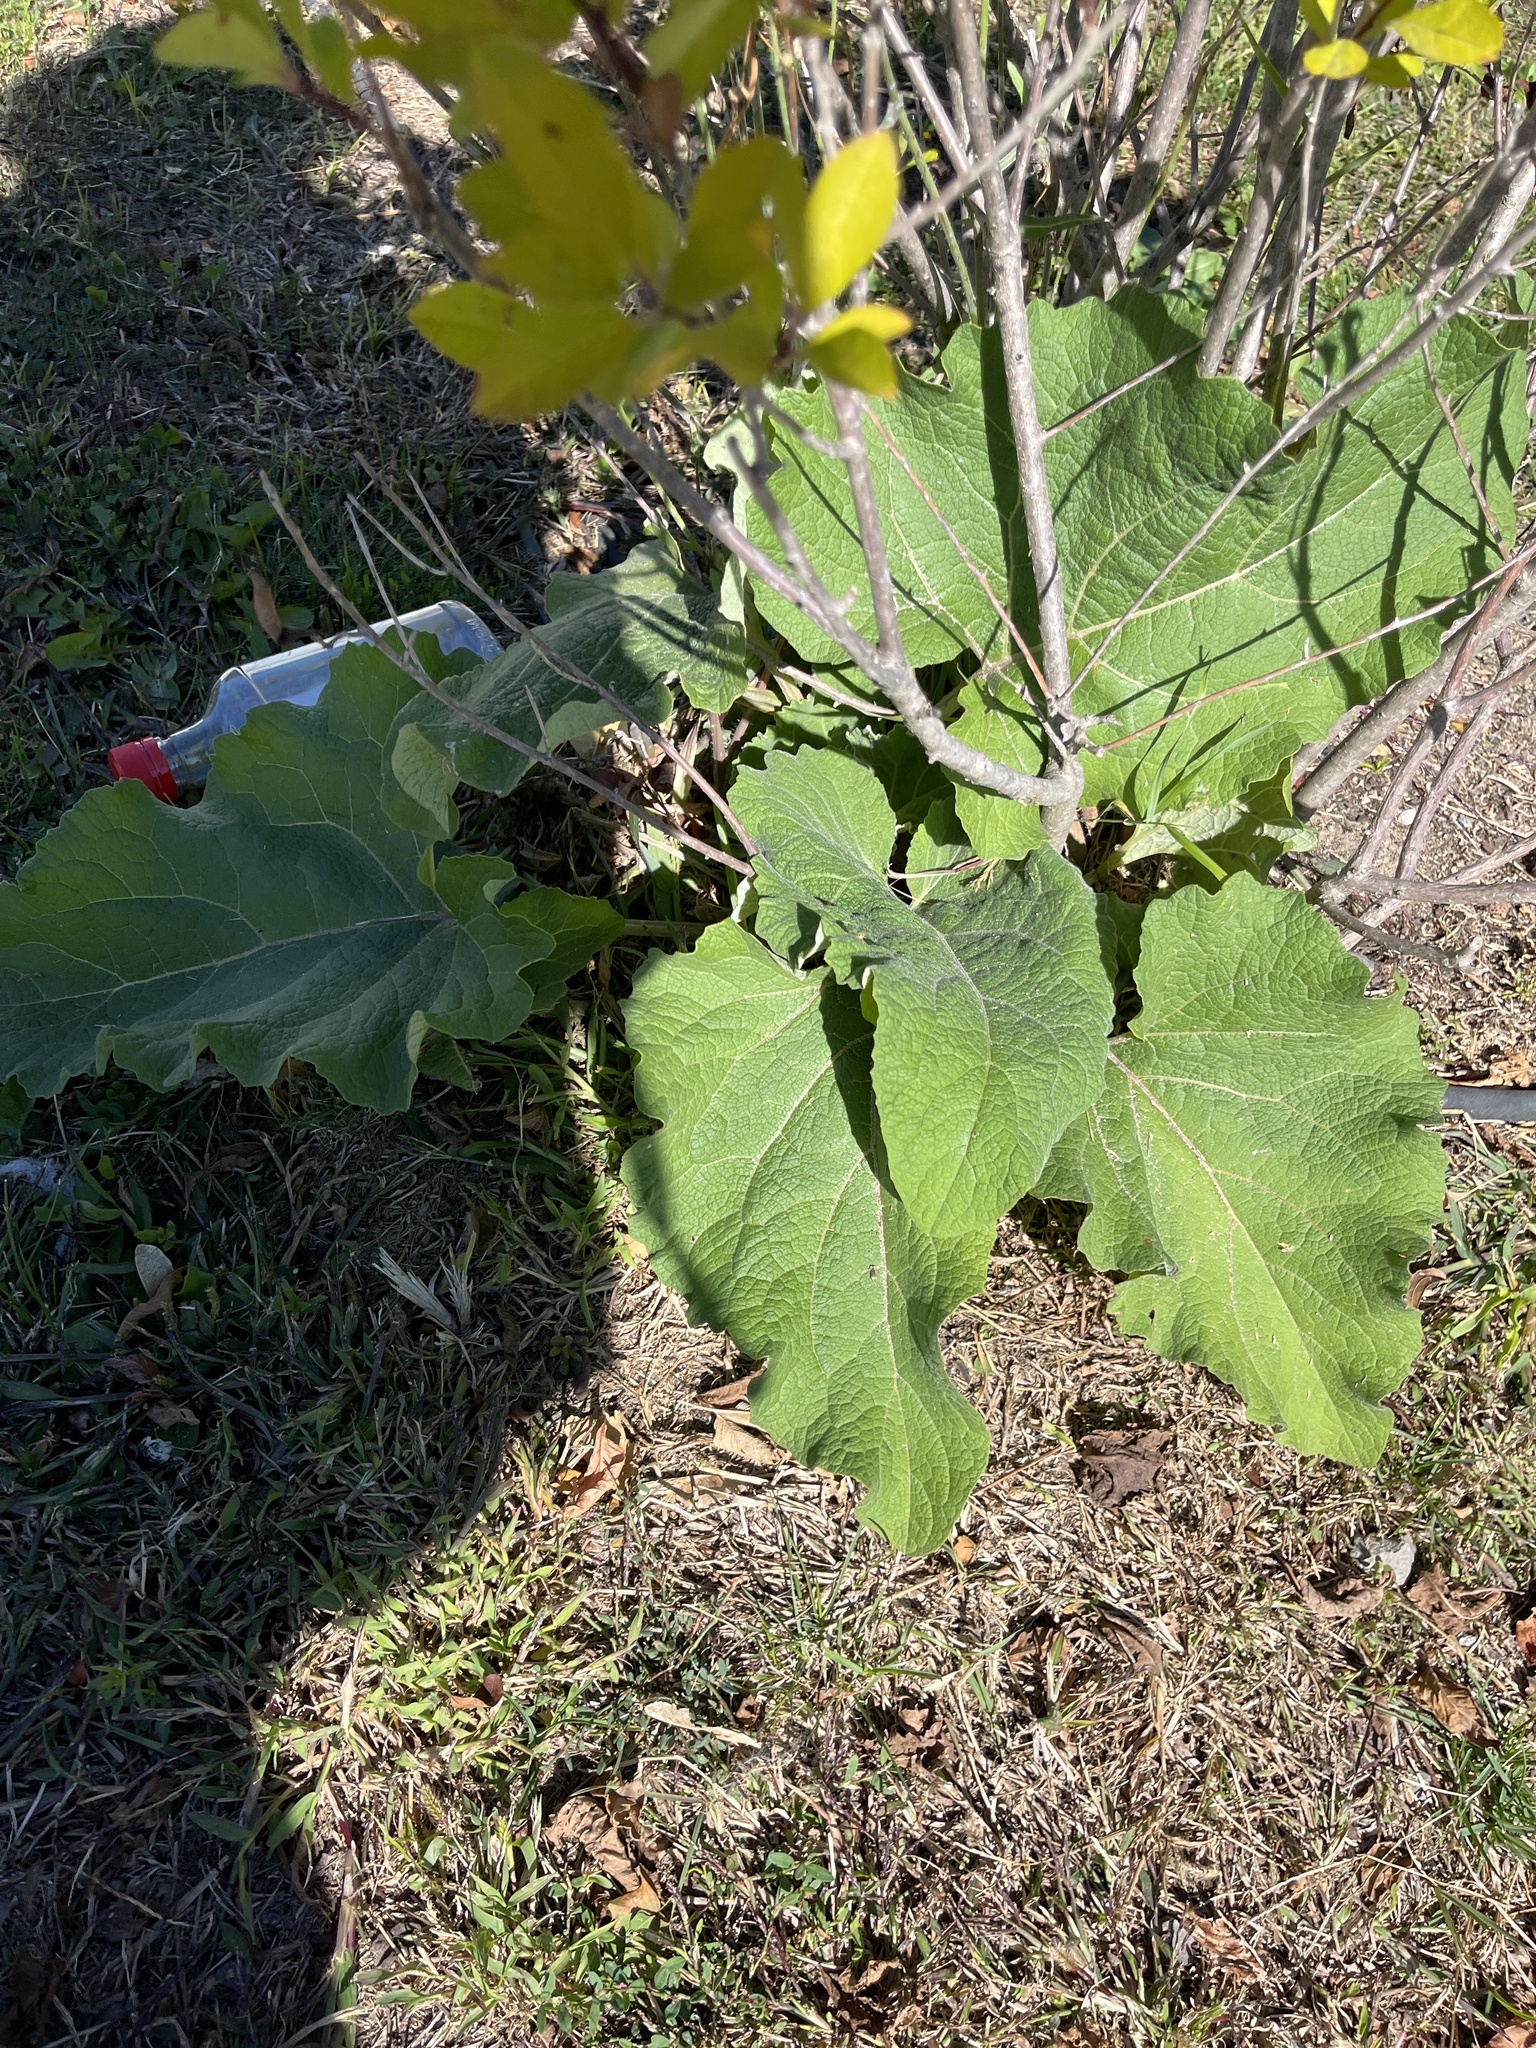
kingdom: Plantae
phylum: Tracheophyta
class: Magnoliopsida
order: Asterales
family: Asteraceae
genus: Arctium
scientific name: Arctium
